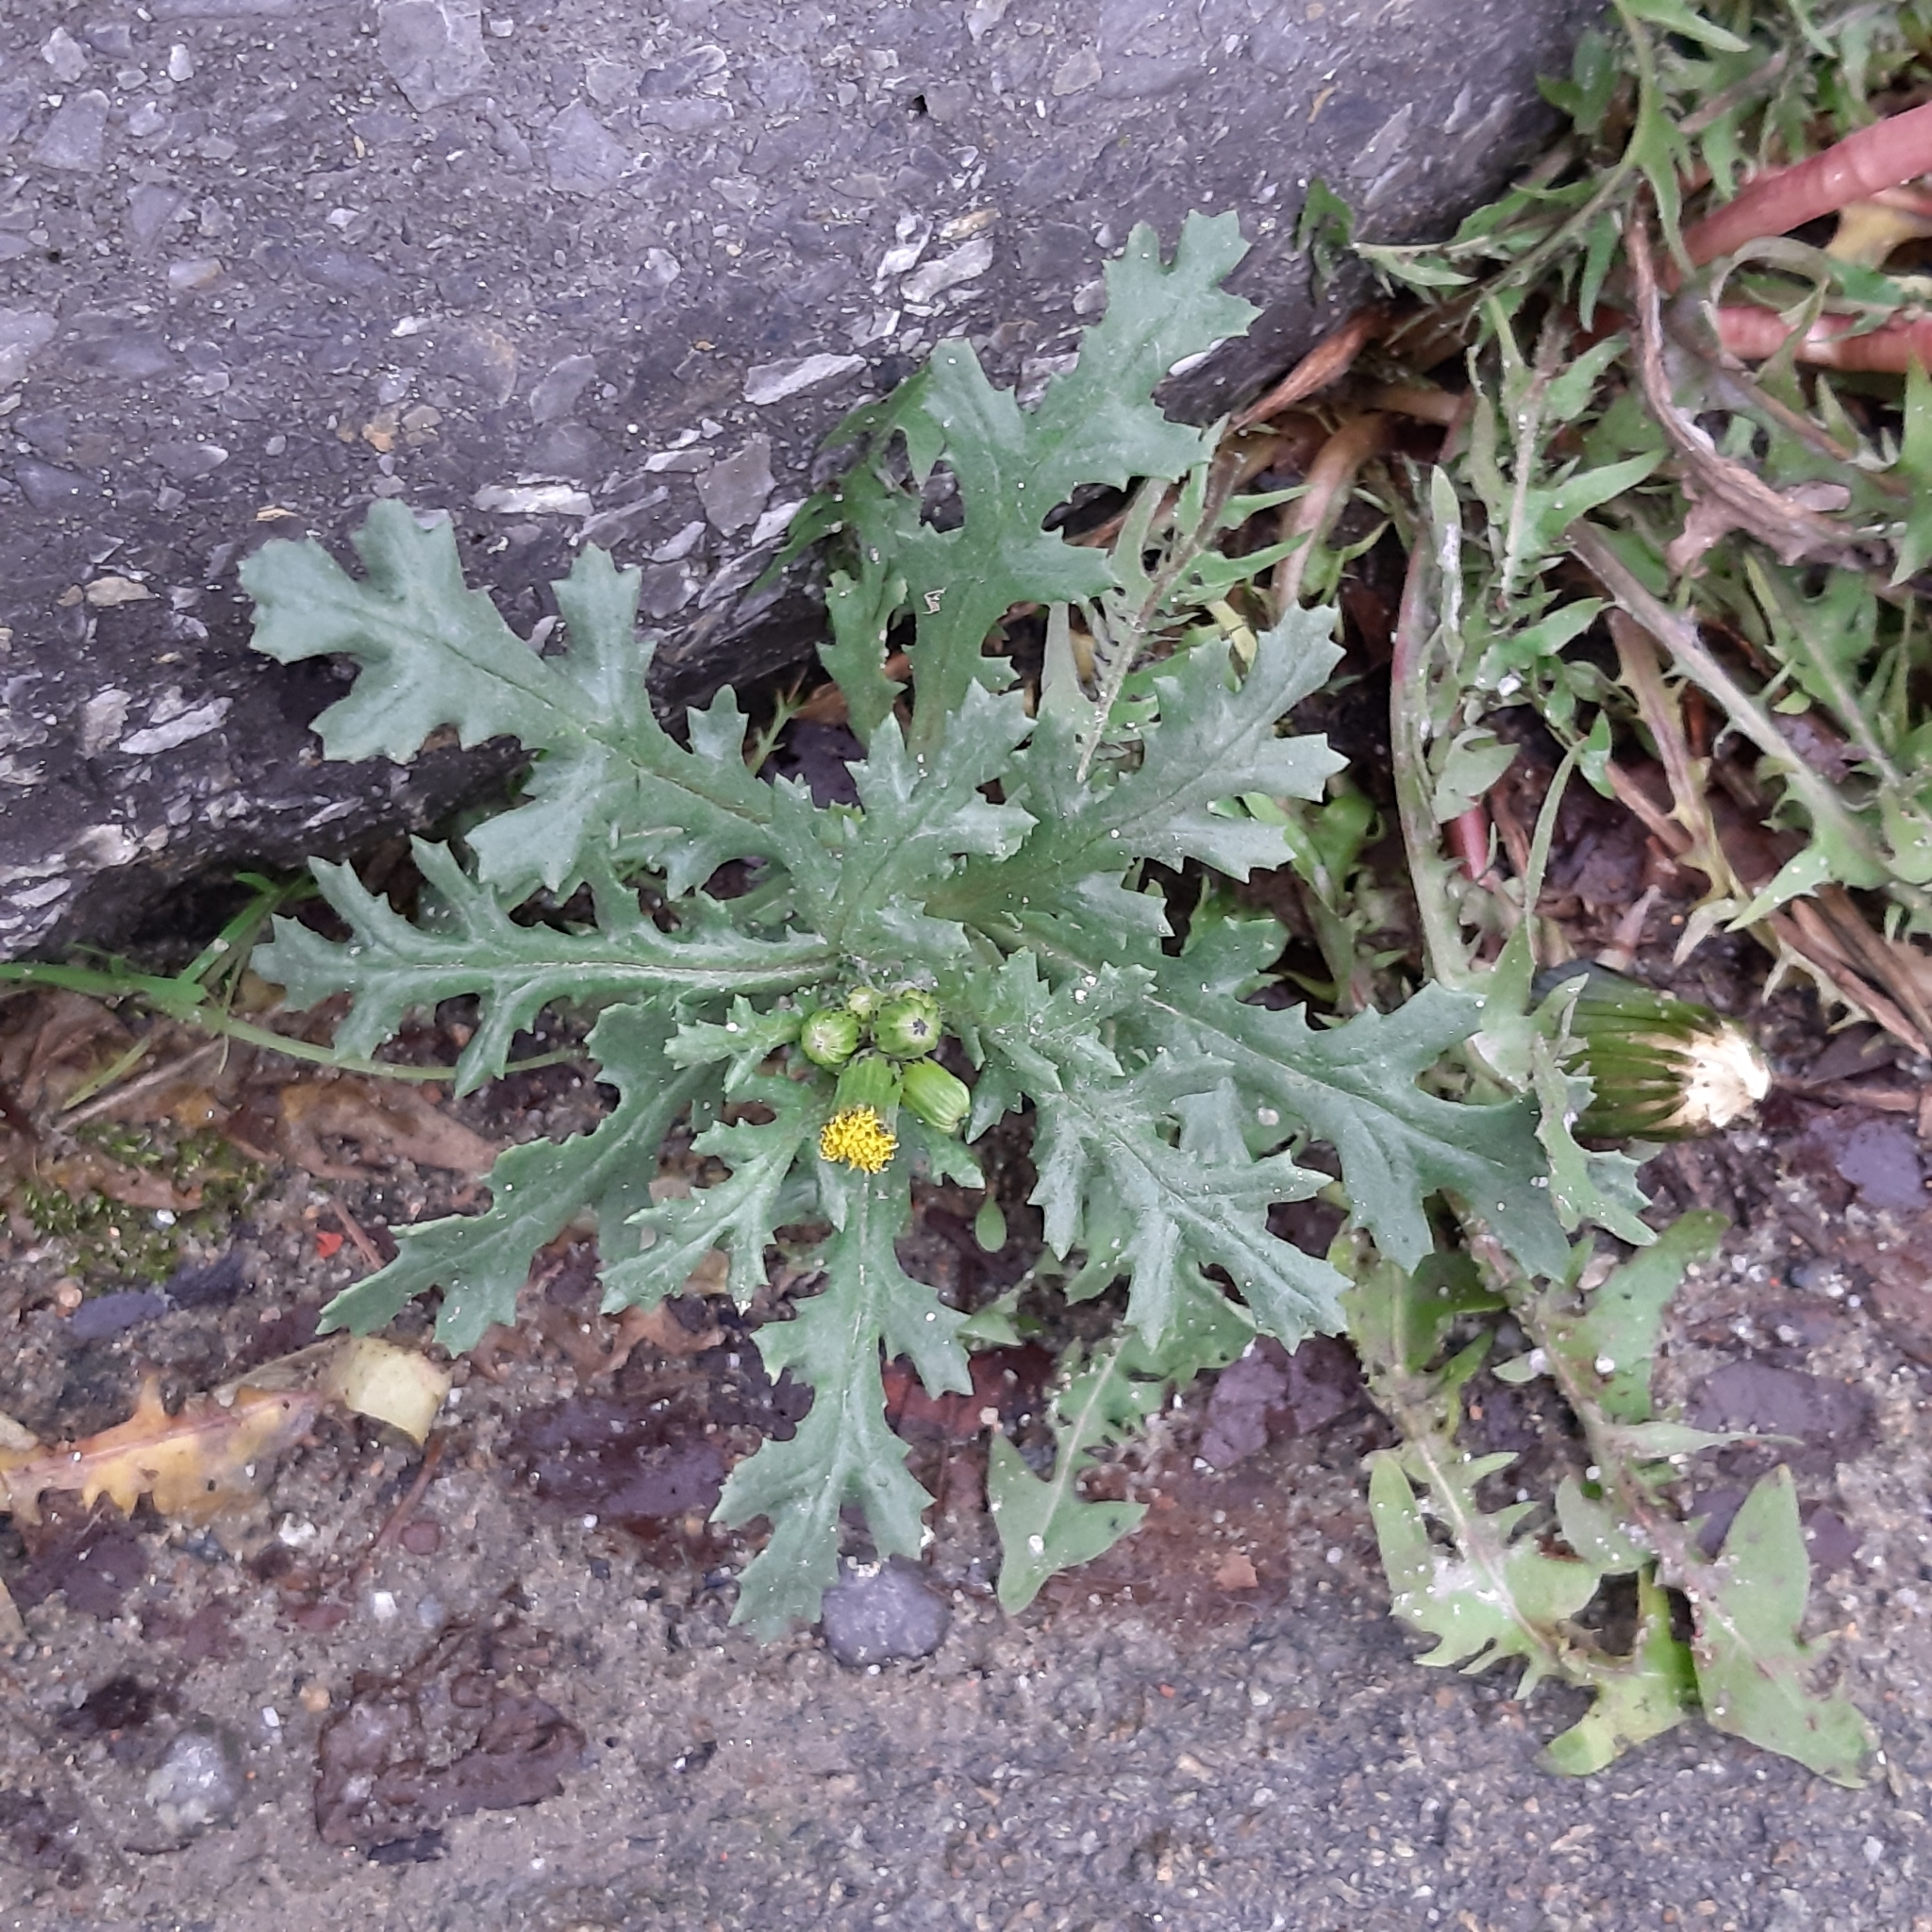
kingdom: Plantae
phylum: Tracheophyta
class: Magnoliopsida
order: Asterales
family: Asteraceae
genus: Senecio
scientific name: Senecio vulgaris
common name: Old-man-in-the-spring
